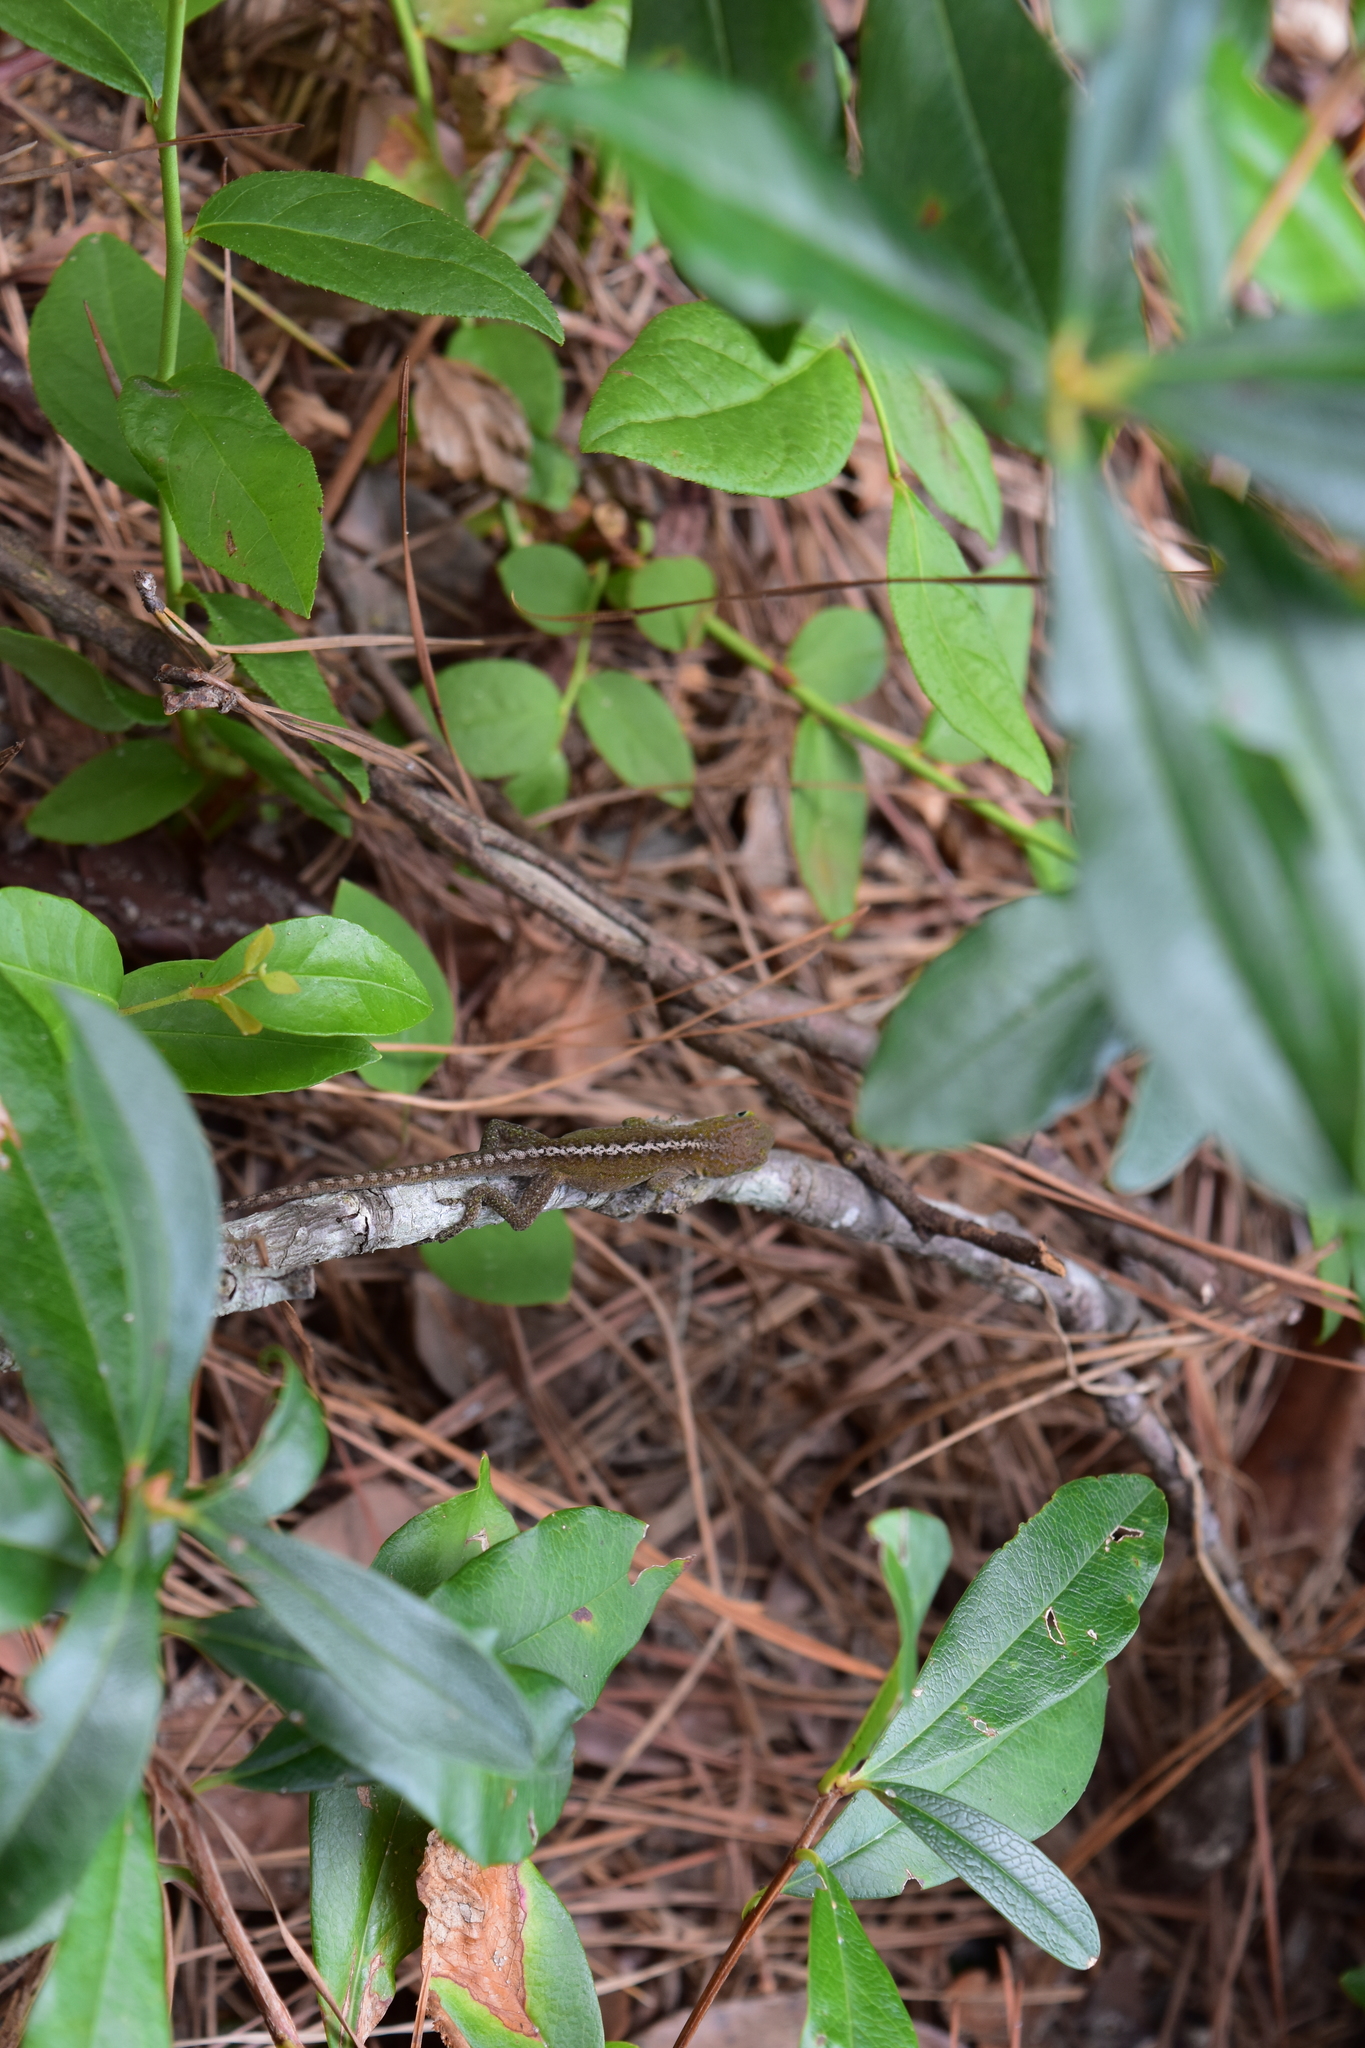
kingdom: Animalia
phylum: Chordata
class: Squamata
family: Dactyloidae
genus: Anolis
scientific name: Anolis carolinensis
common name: Green anole
